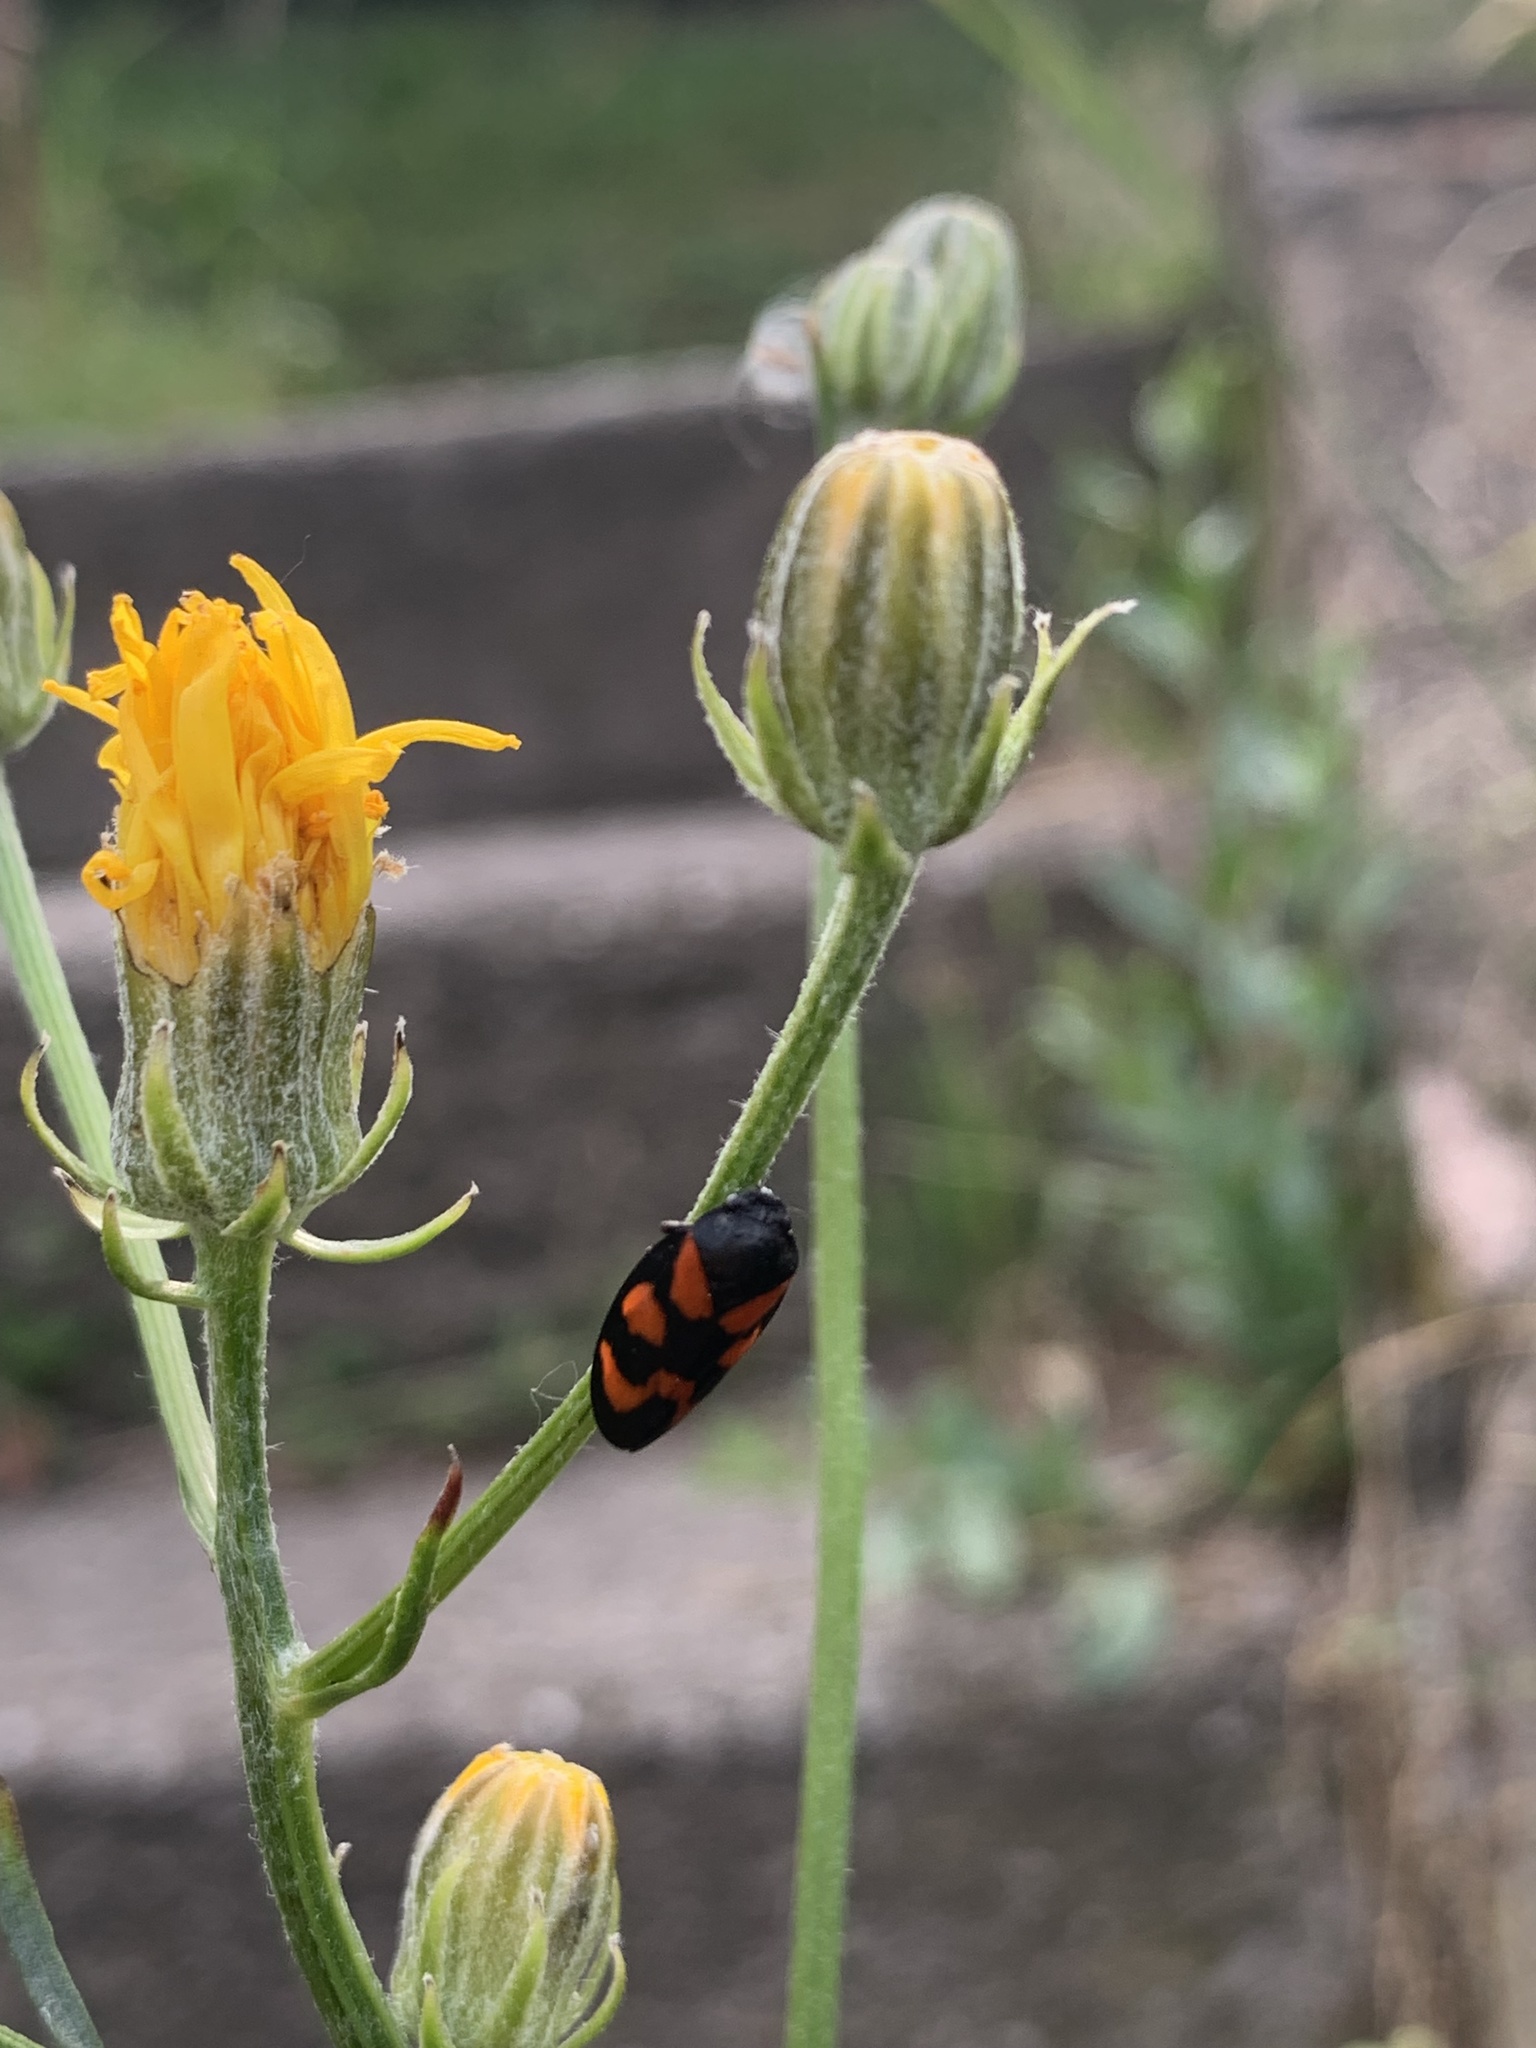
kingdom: Animalia
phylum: Arthropoda
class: Insecta
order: Hemiptera
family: Cercopidae
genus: Cercopis
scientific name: Cercopis vulnerata
